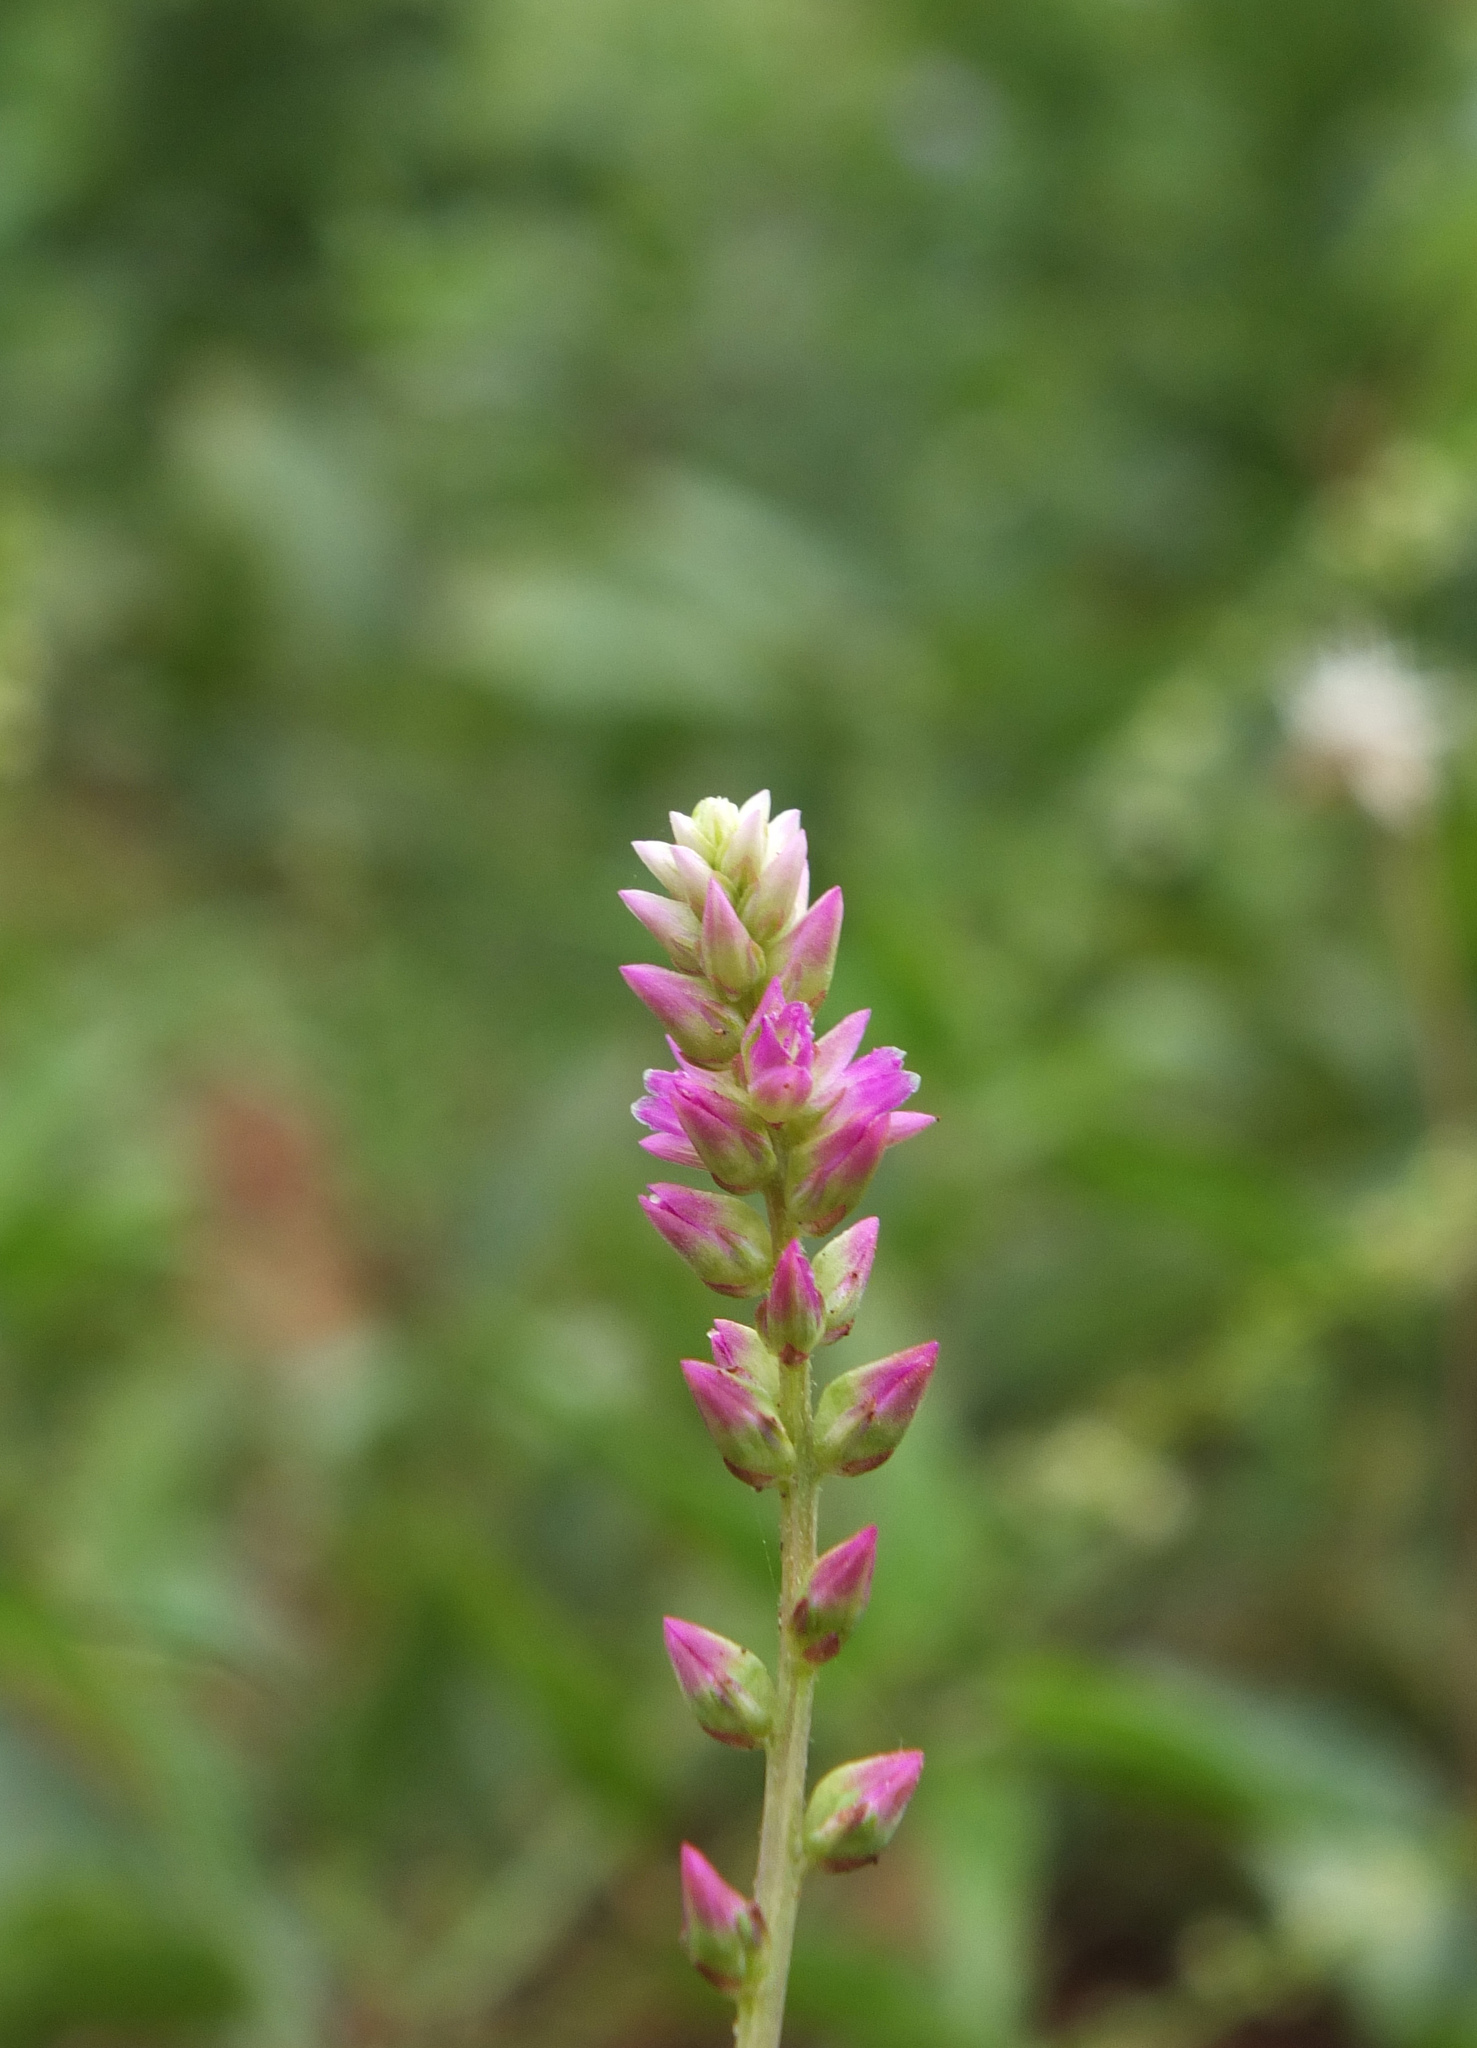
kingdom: Plantae
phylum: Tracheophyta
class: Magnoliopsida
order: Caryophyllales
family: Amaranthaceae
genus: Digera
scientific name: Digera muricata
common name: False amaranth
